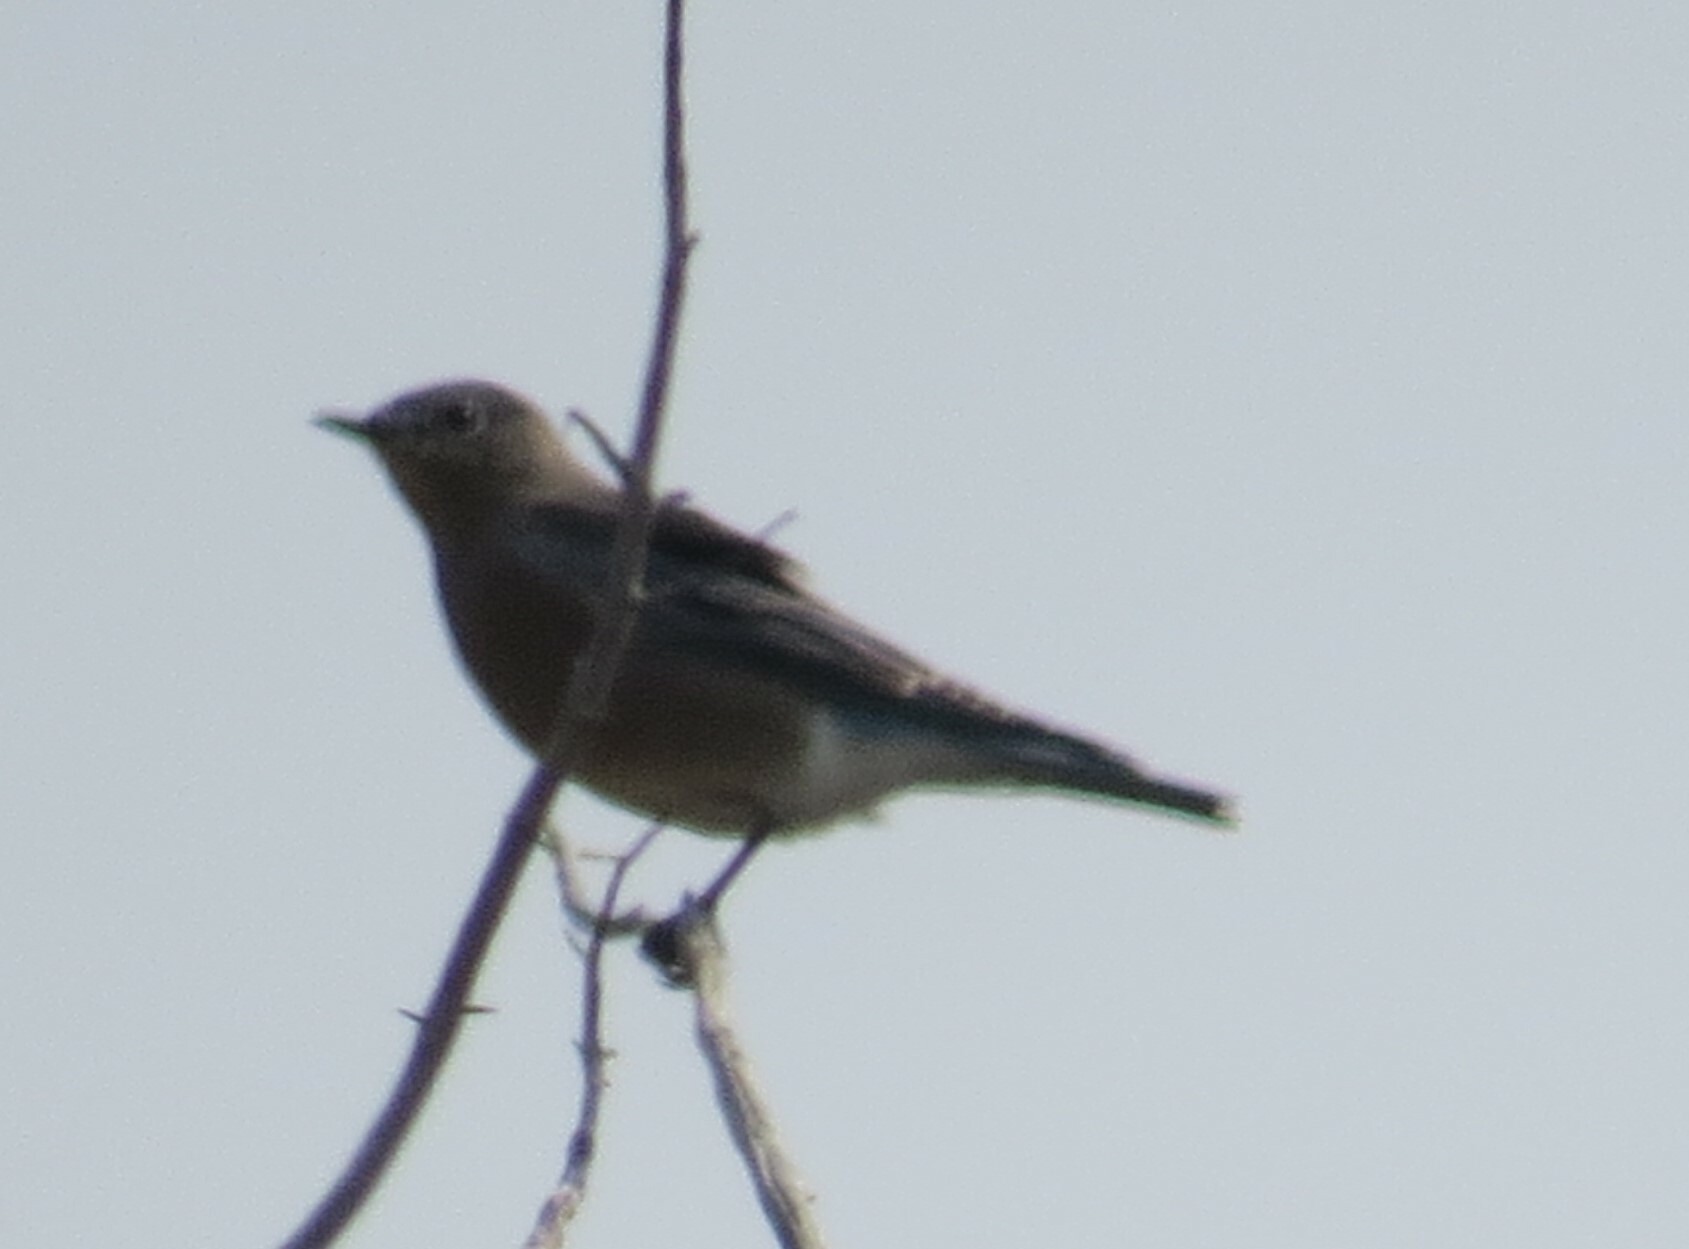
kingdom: Animalia
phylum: Chordata
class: Aves
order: Passeriformes
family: Turdidae
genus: Sialia
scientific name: Sialia currucoides
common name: Mountain bluebird
